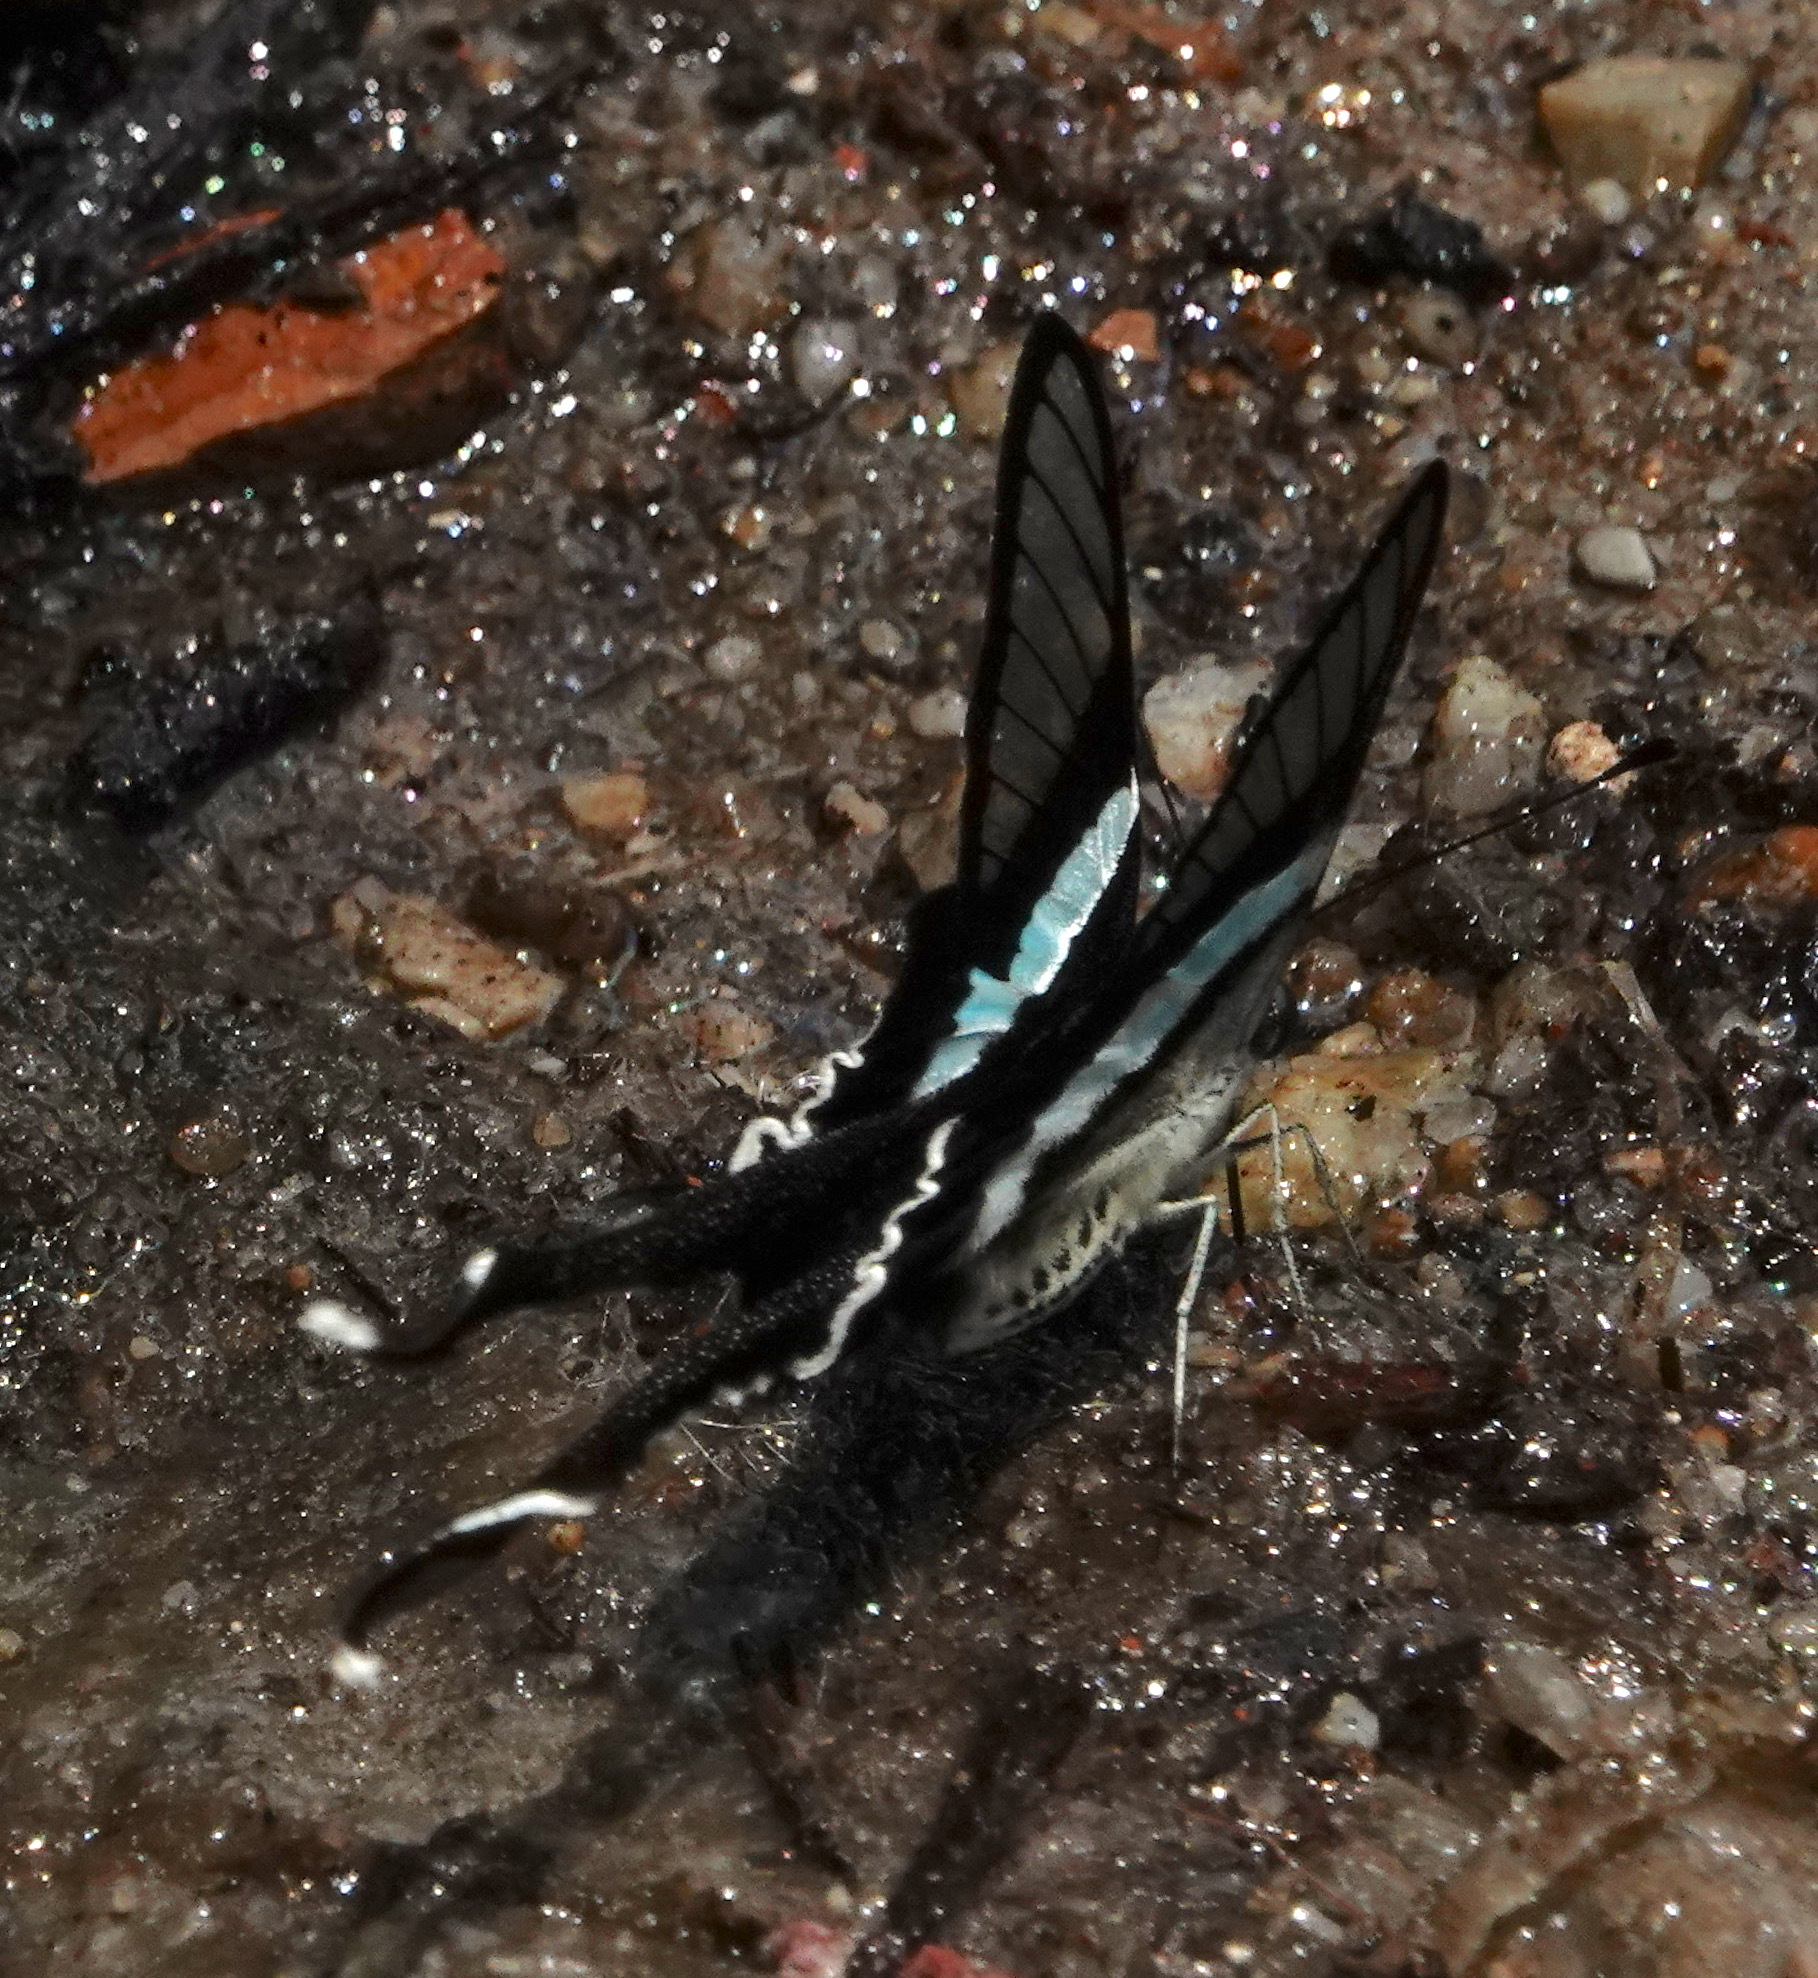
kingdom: Animalia
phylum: Arthropoda
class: Insecta
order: Lepidoptera
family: Papilionidae
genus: Lamproptera
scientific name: Lamproptera meges
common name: Green dragontail
